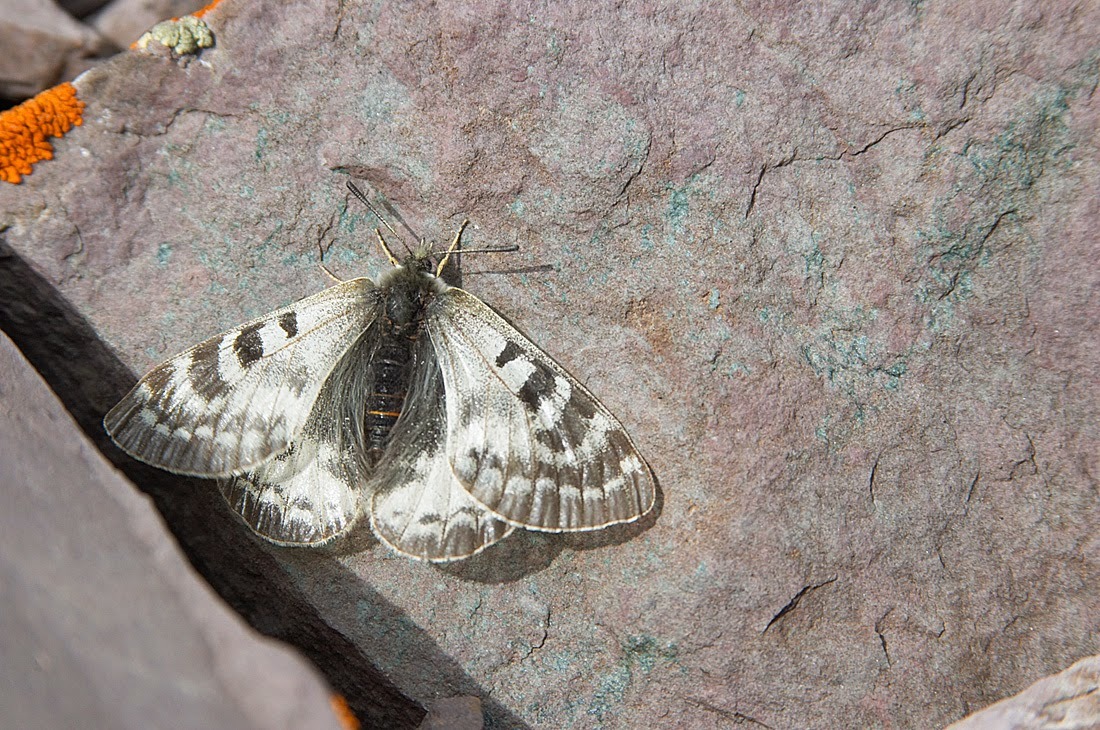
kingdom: Animalia
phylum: Arthropoda
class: Insecta
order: Lepidoptera
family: Papilionidae
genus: Parnassius
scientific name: Parnassius patricius
